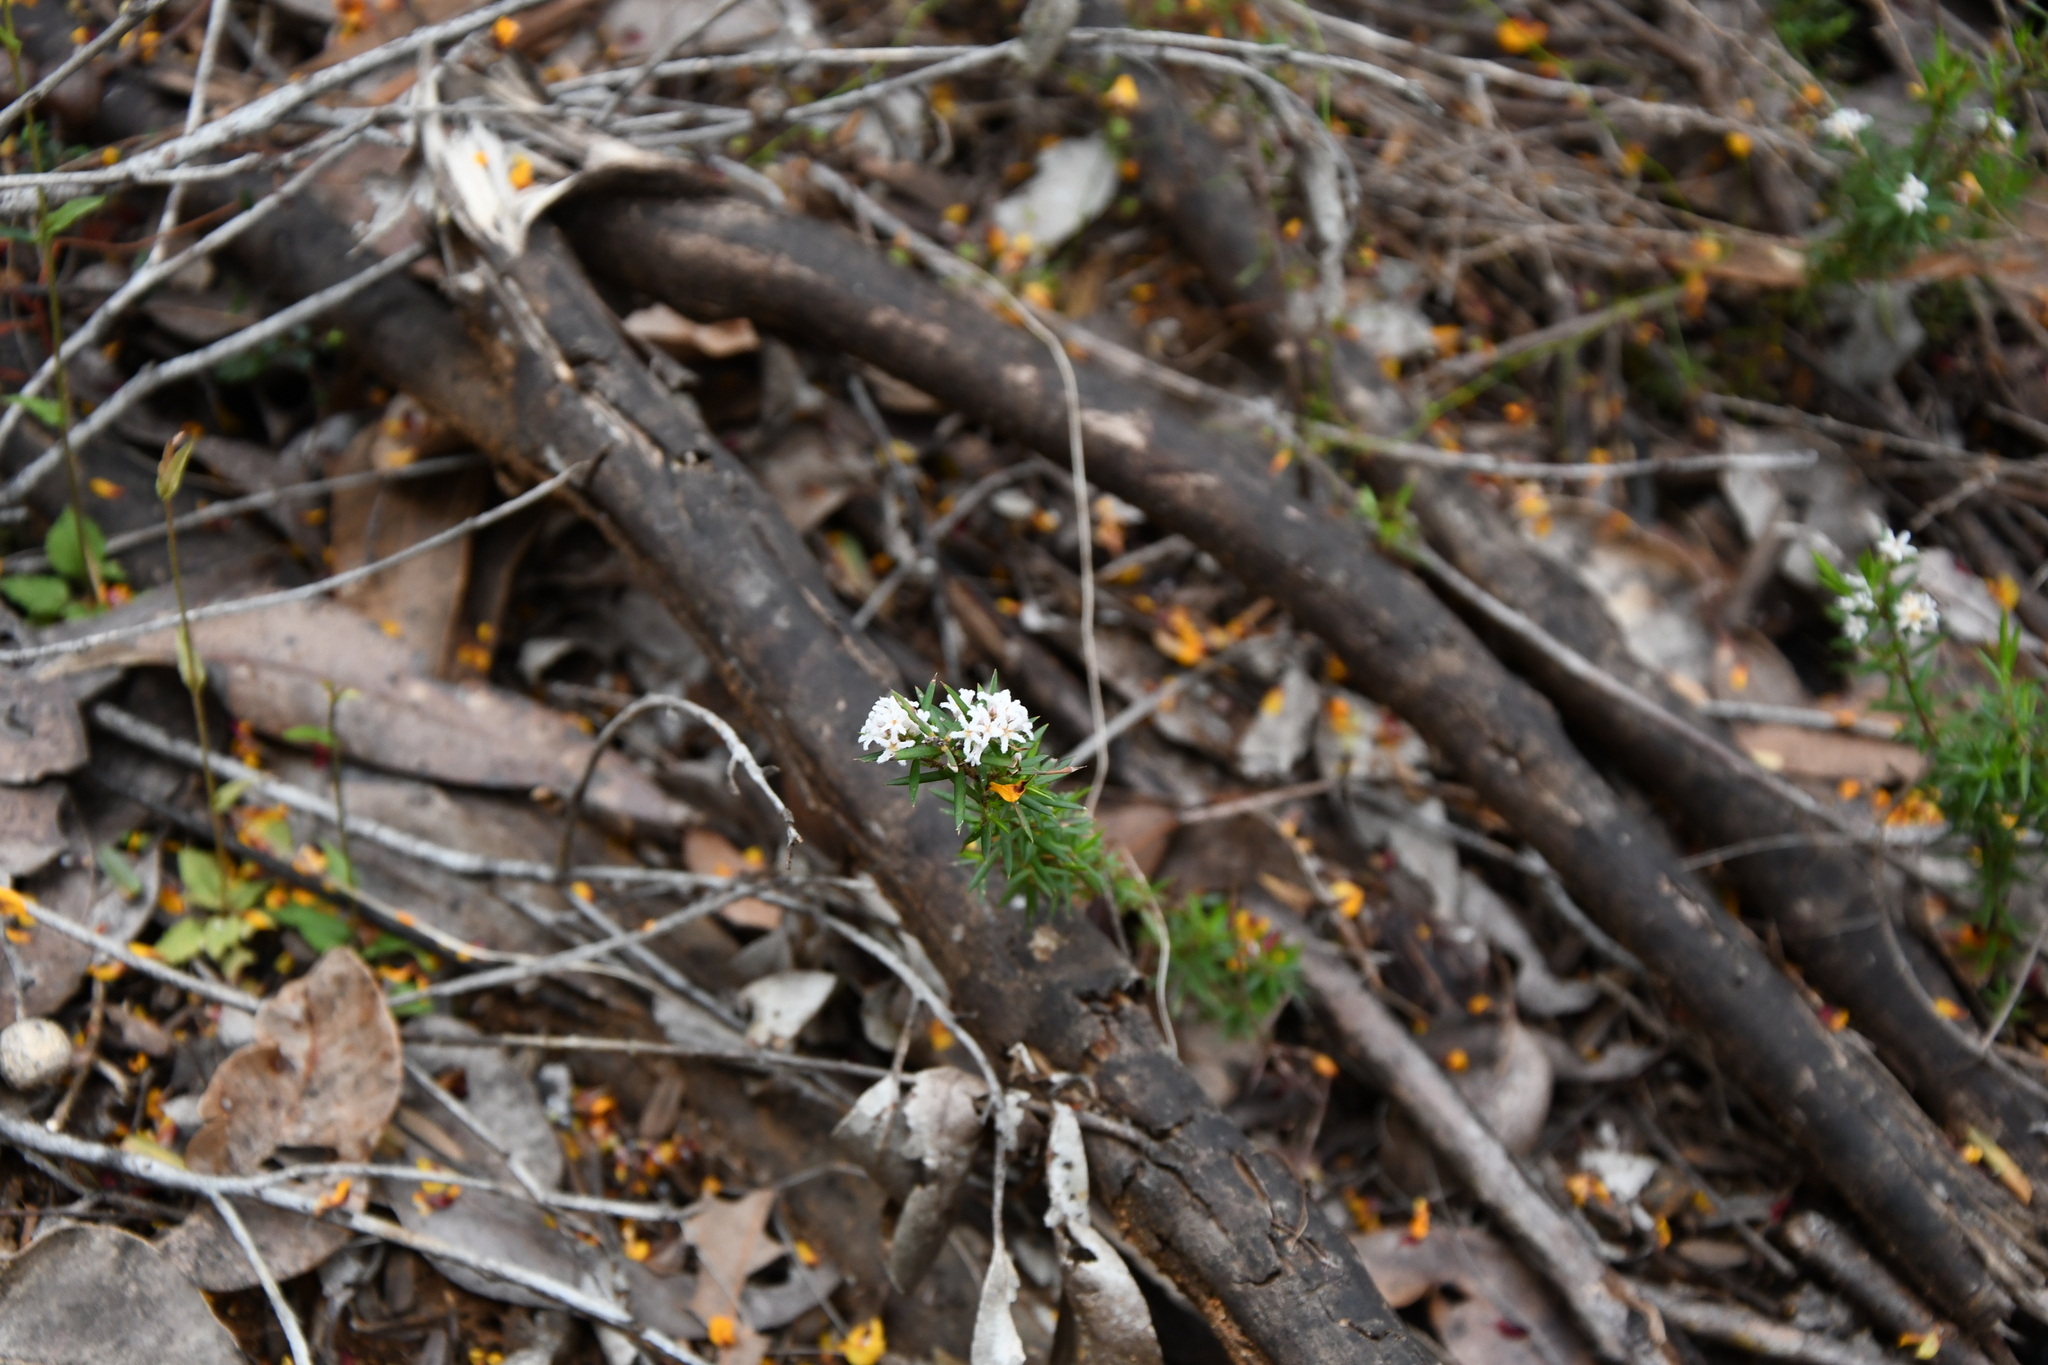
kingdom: Plantae
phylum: Tracheophyta
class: Magnoliopsida
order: Ericales
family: Ericaceae
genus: Leucopogon
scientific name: Leucopogon obovatus
